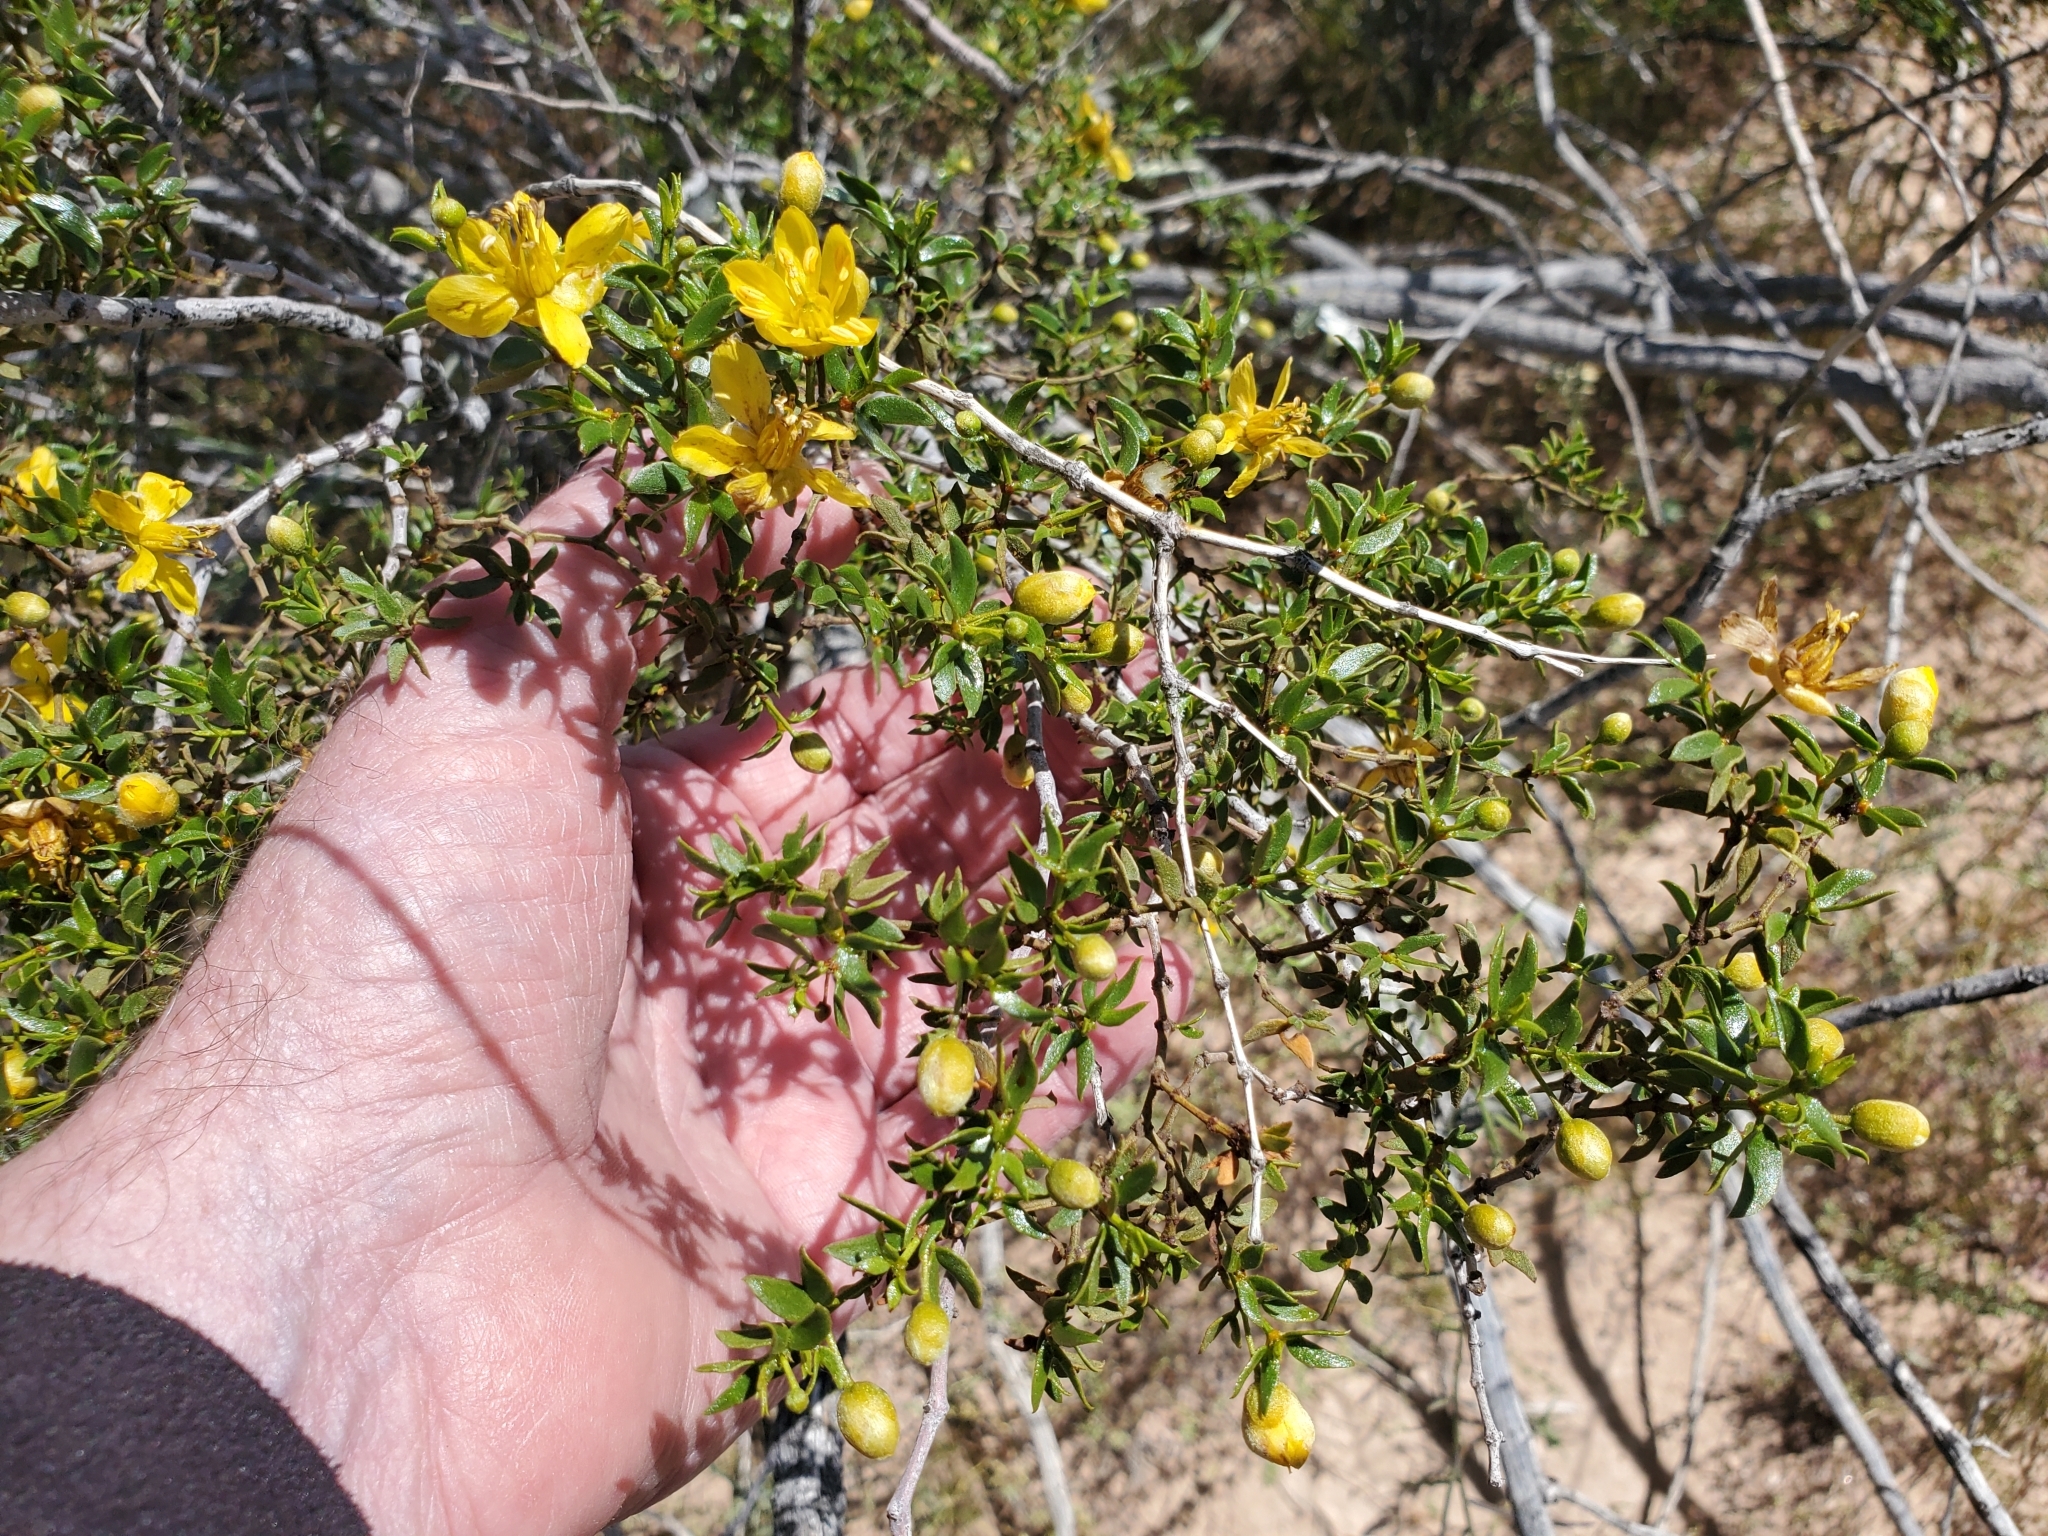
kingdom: Plantae
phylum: Tracheophyta
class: Magnoliopsida
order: Zygophyllales
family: Zygophyllaceae
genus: Larrea
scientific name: Larrea tridentata
